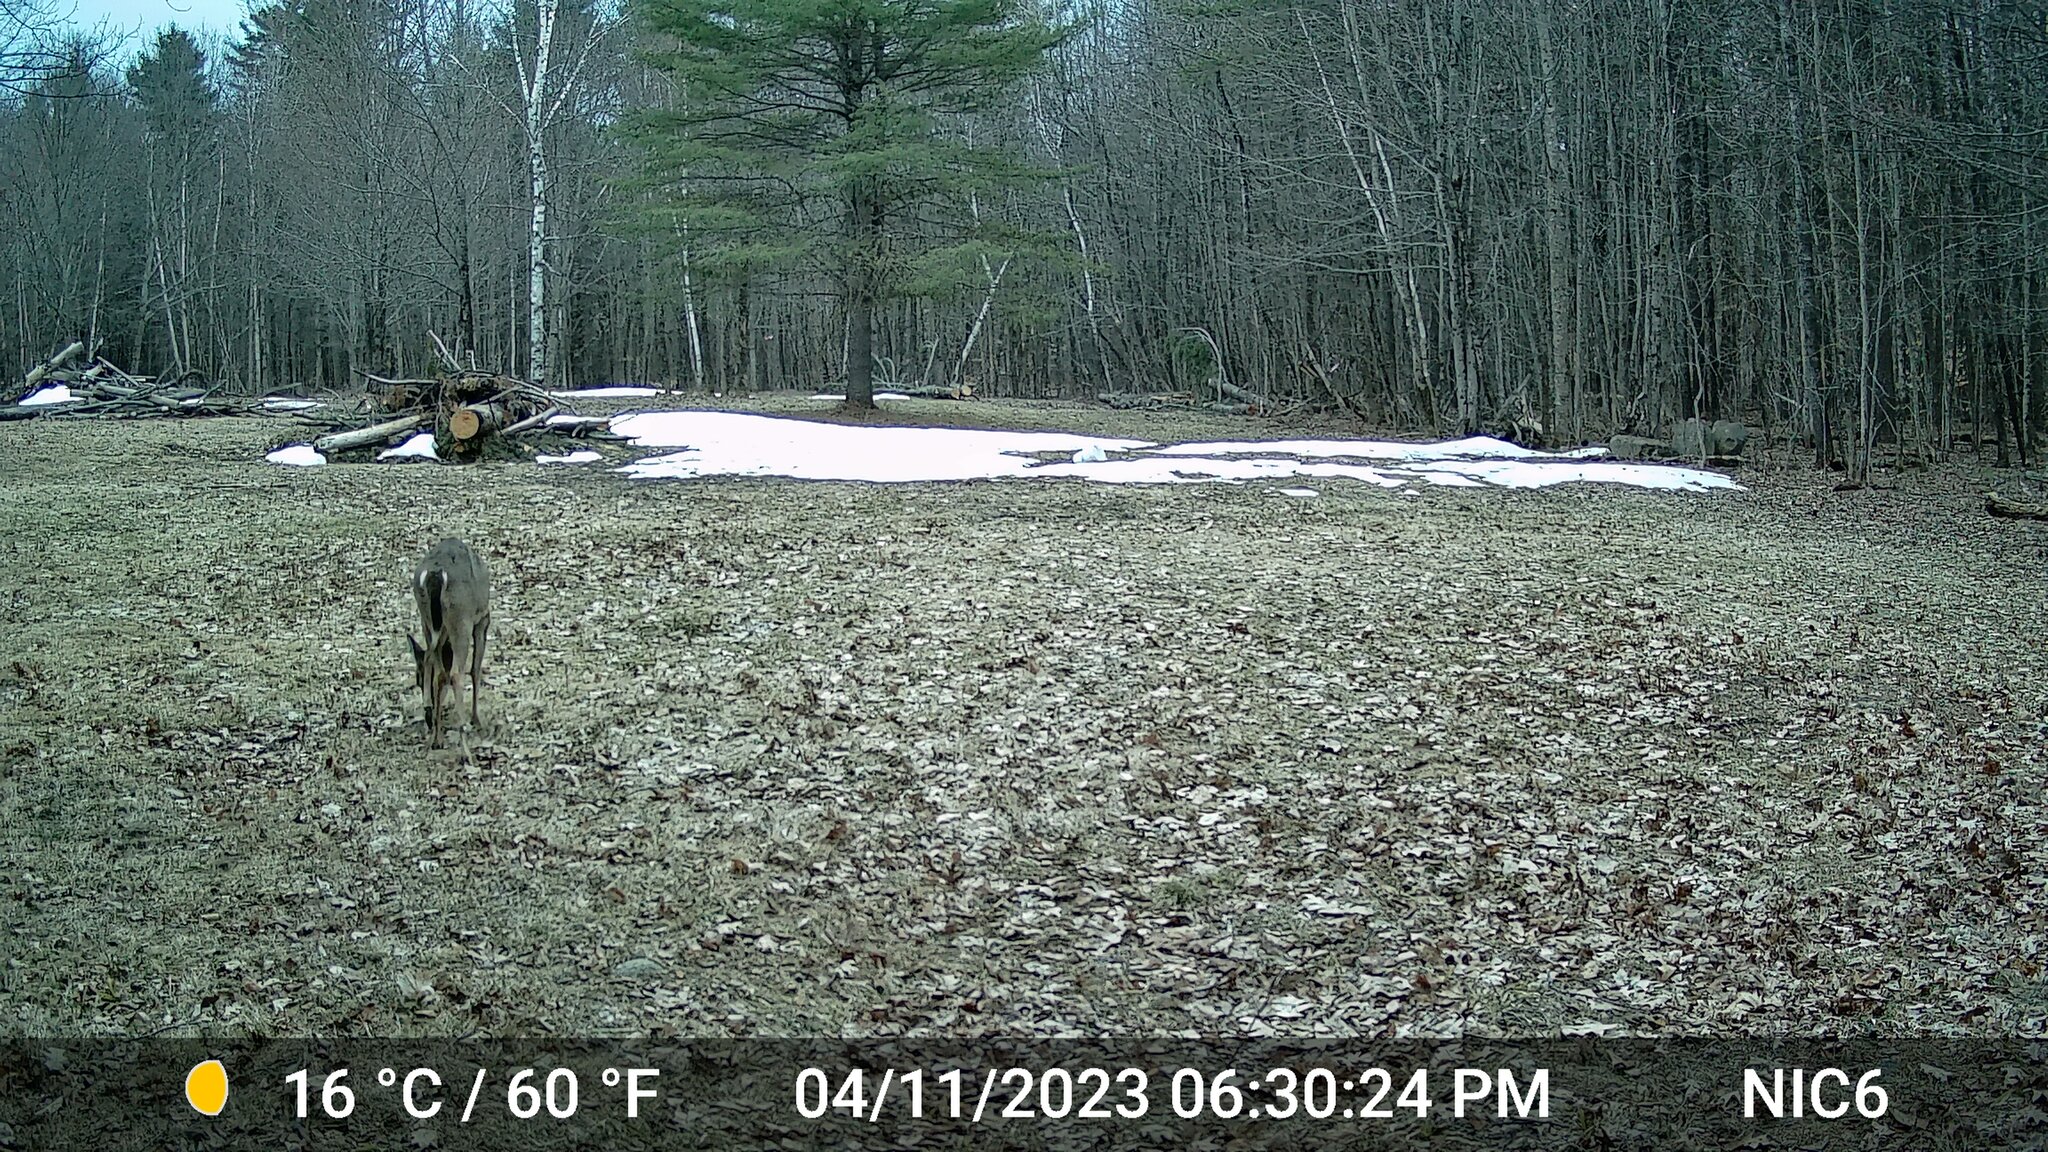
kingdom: Animalia
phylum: Chordata
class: Mammalia
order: Artiodactyla
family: Cervidae
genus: Odocoileus
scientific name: Odocoileus virginianus
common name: White-tailed deer
